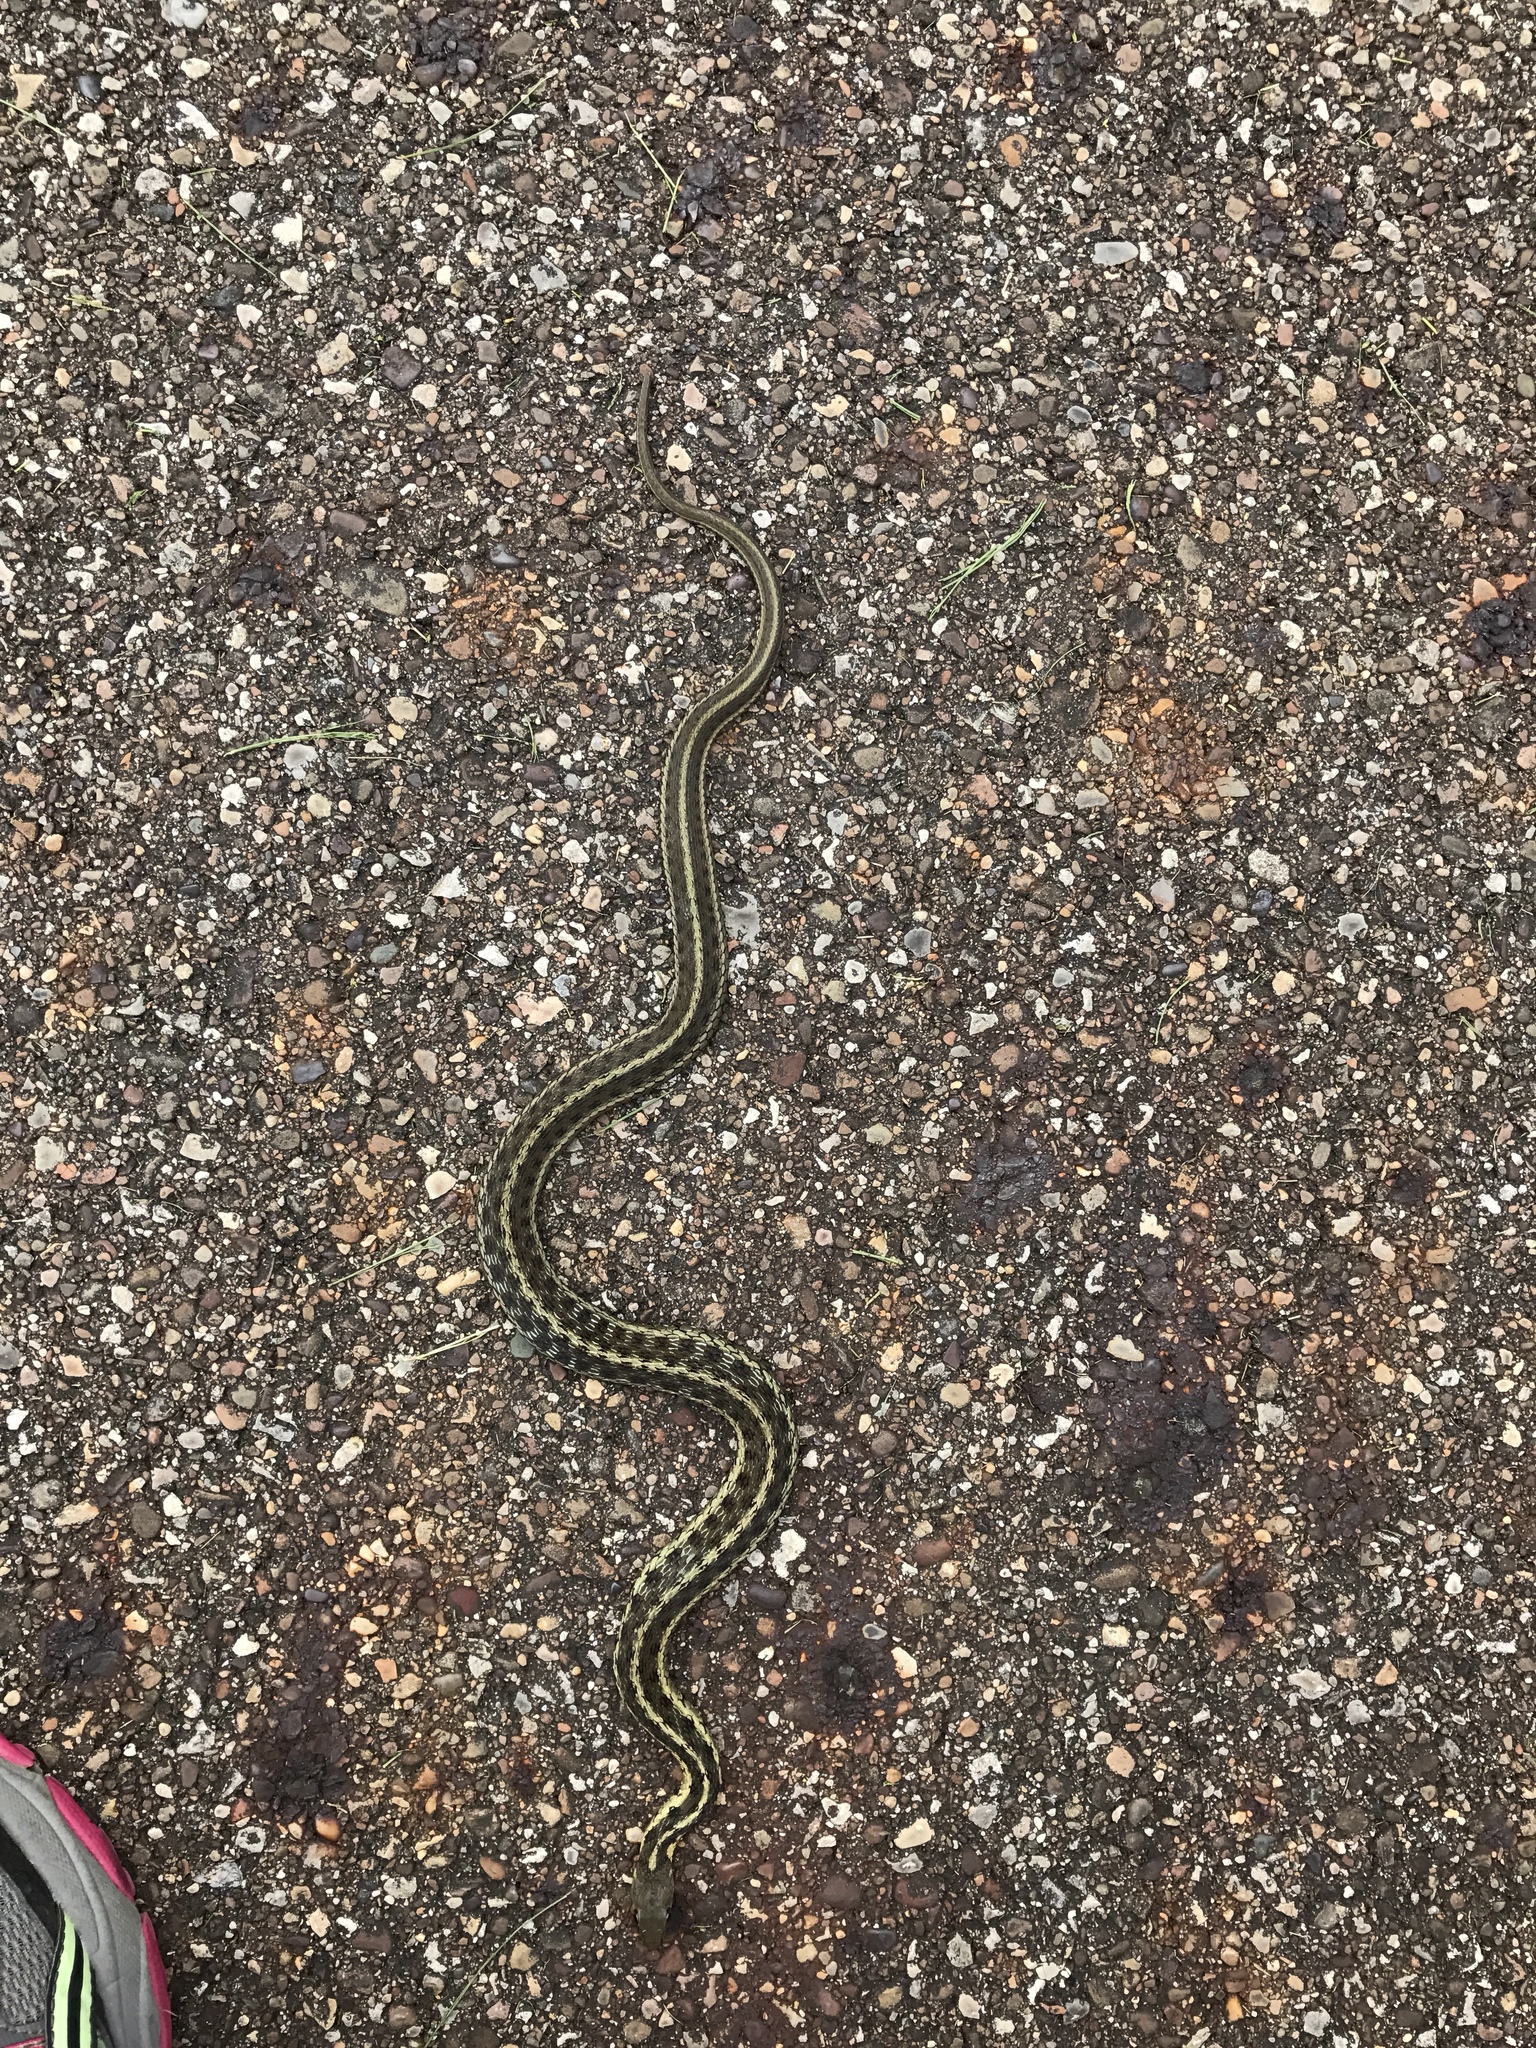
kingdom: Animalia
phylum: Chordata
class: Squamata
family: Colubridae
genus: Thamnophis
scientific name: Thamnophis sirtalis
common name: Common garter snake
